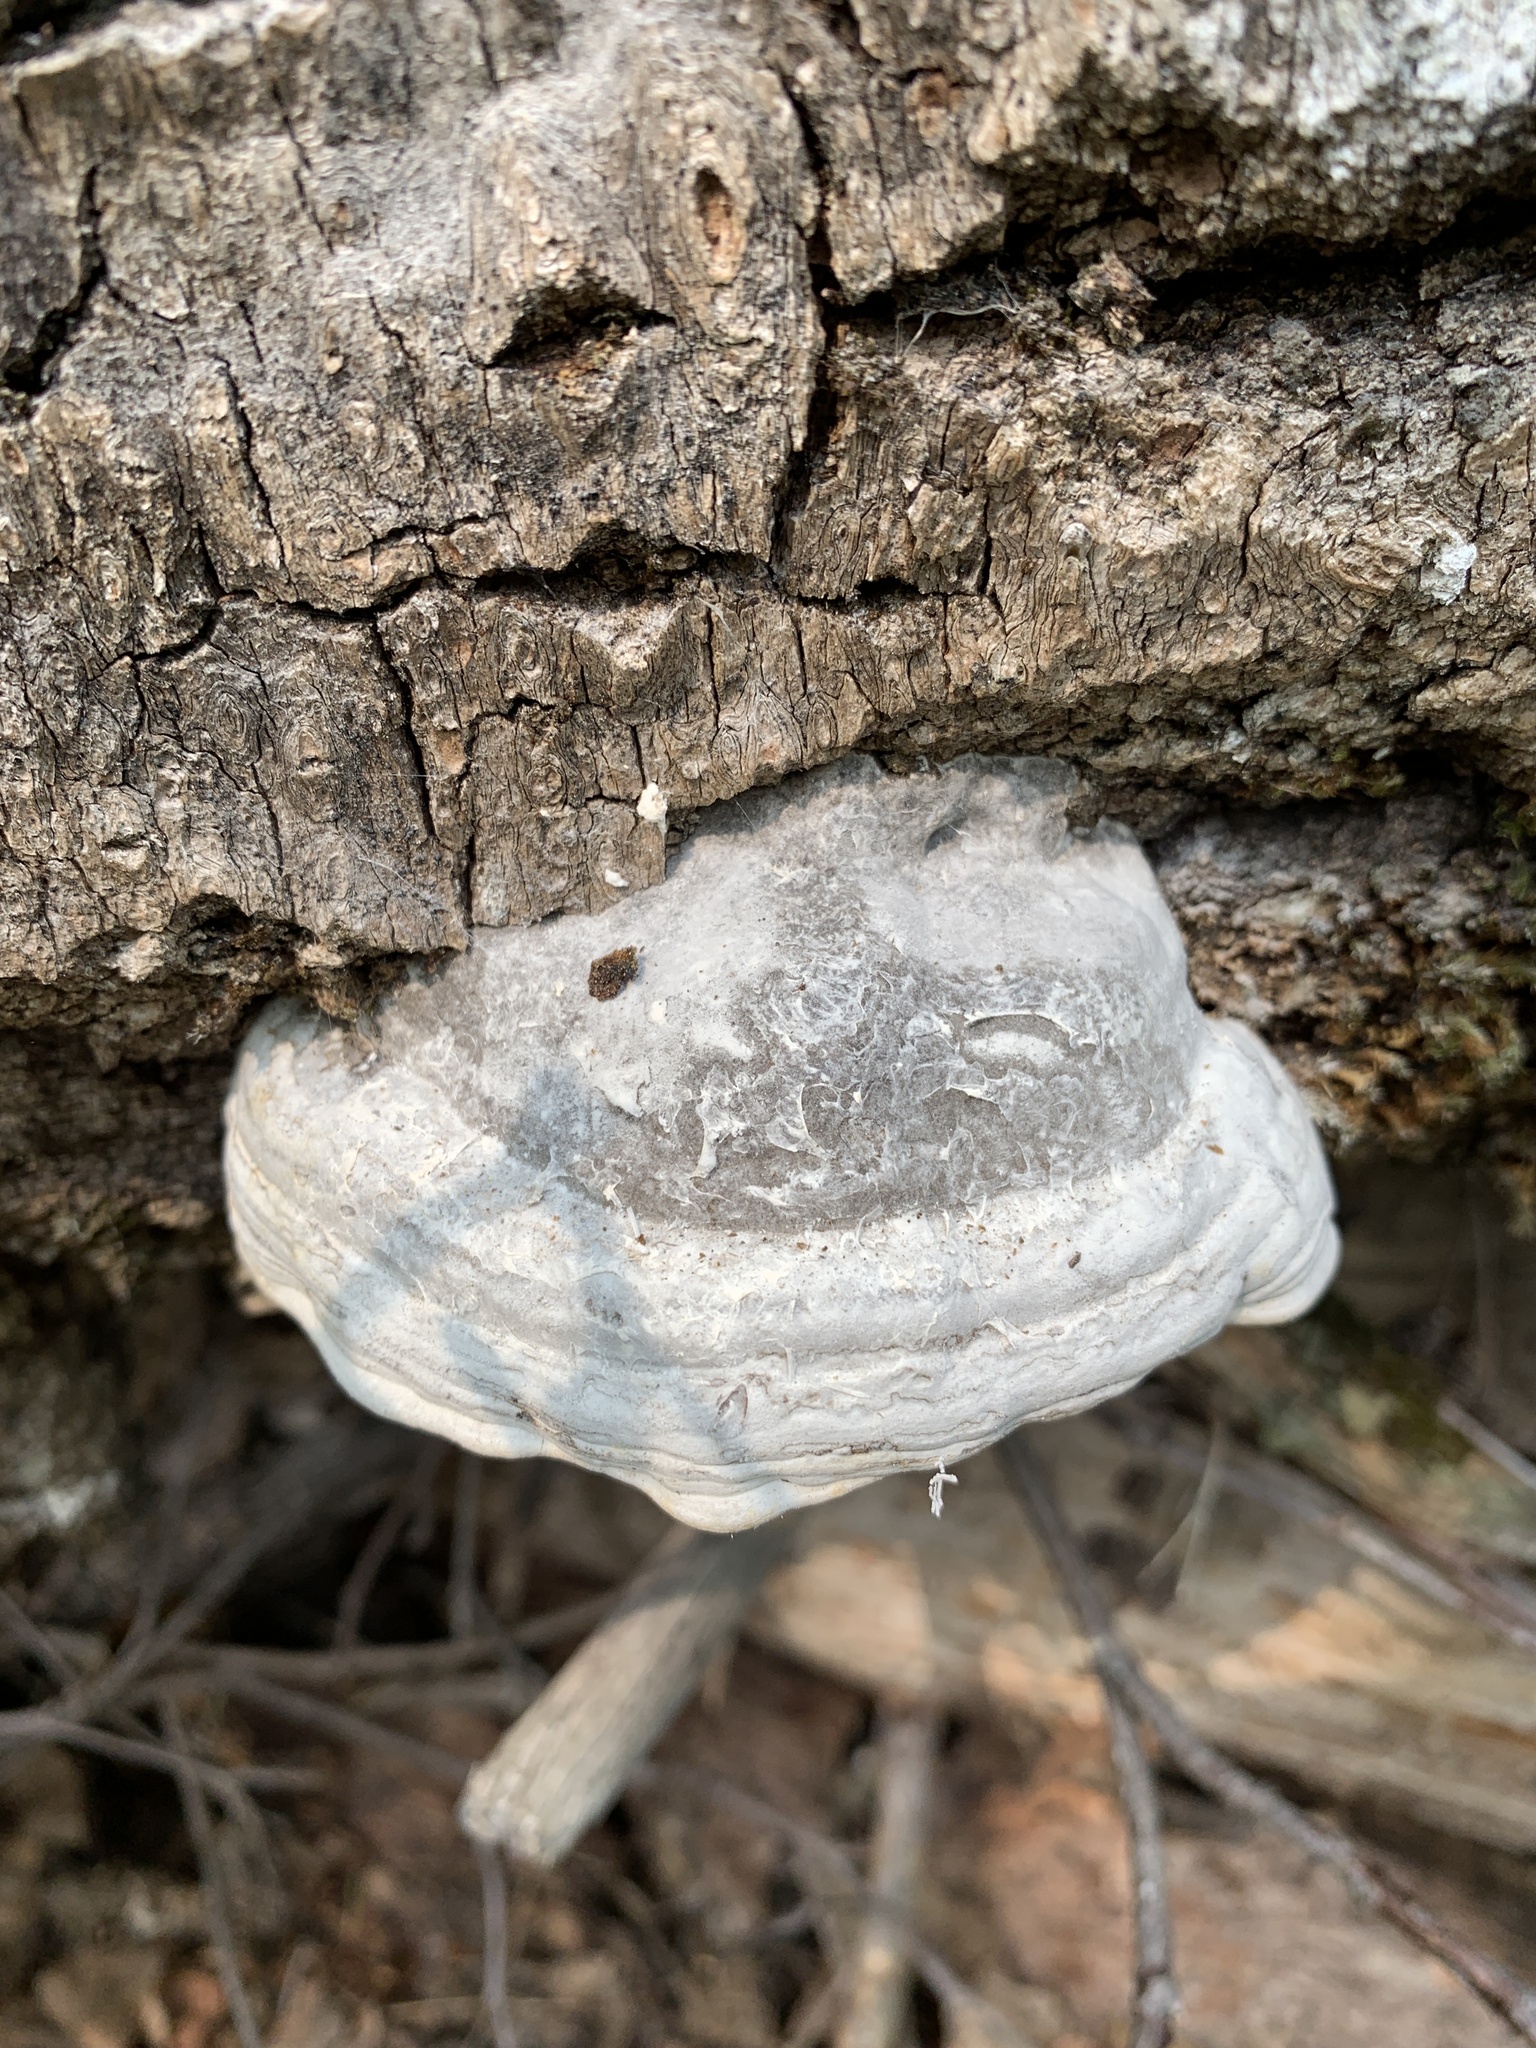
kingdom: Fungi
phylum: Basidiomycota
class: Agaricomycetes
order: Polyporales
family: Polyporaceae
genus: Fomes
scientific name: Fomes fomentarius
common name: Hoof fungus
